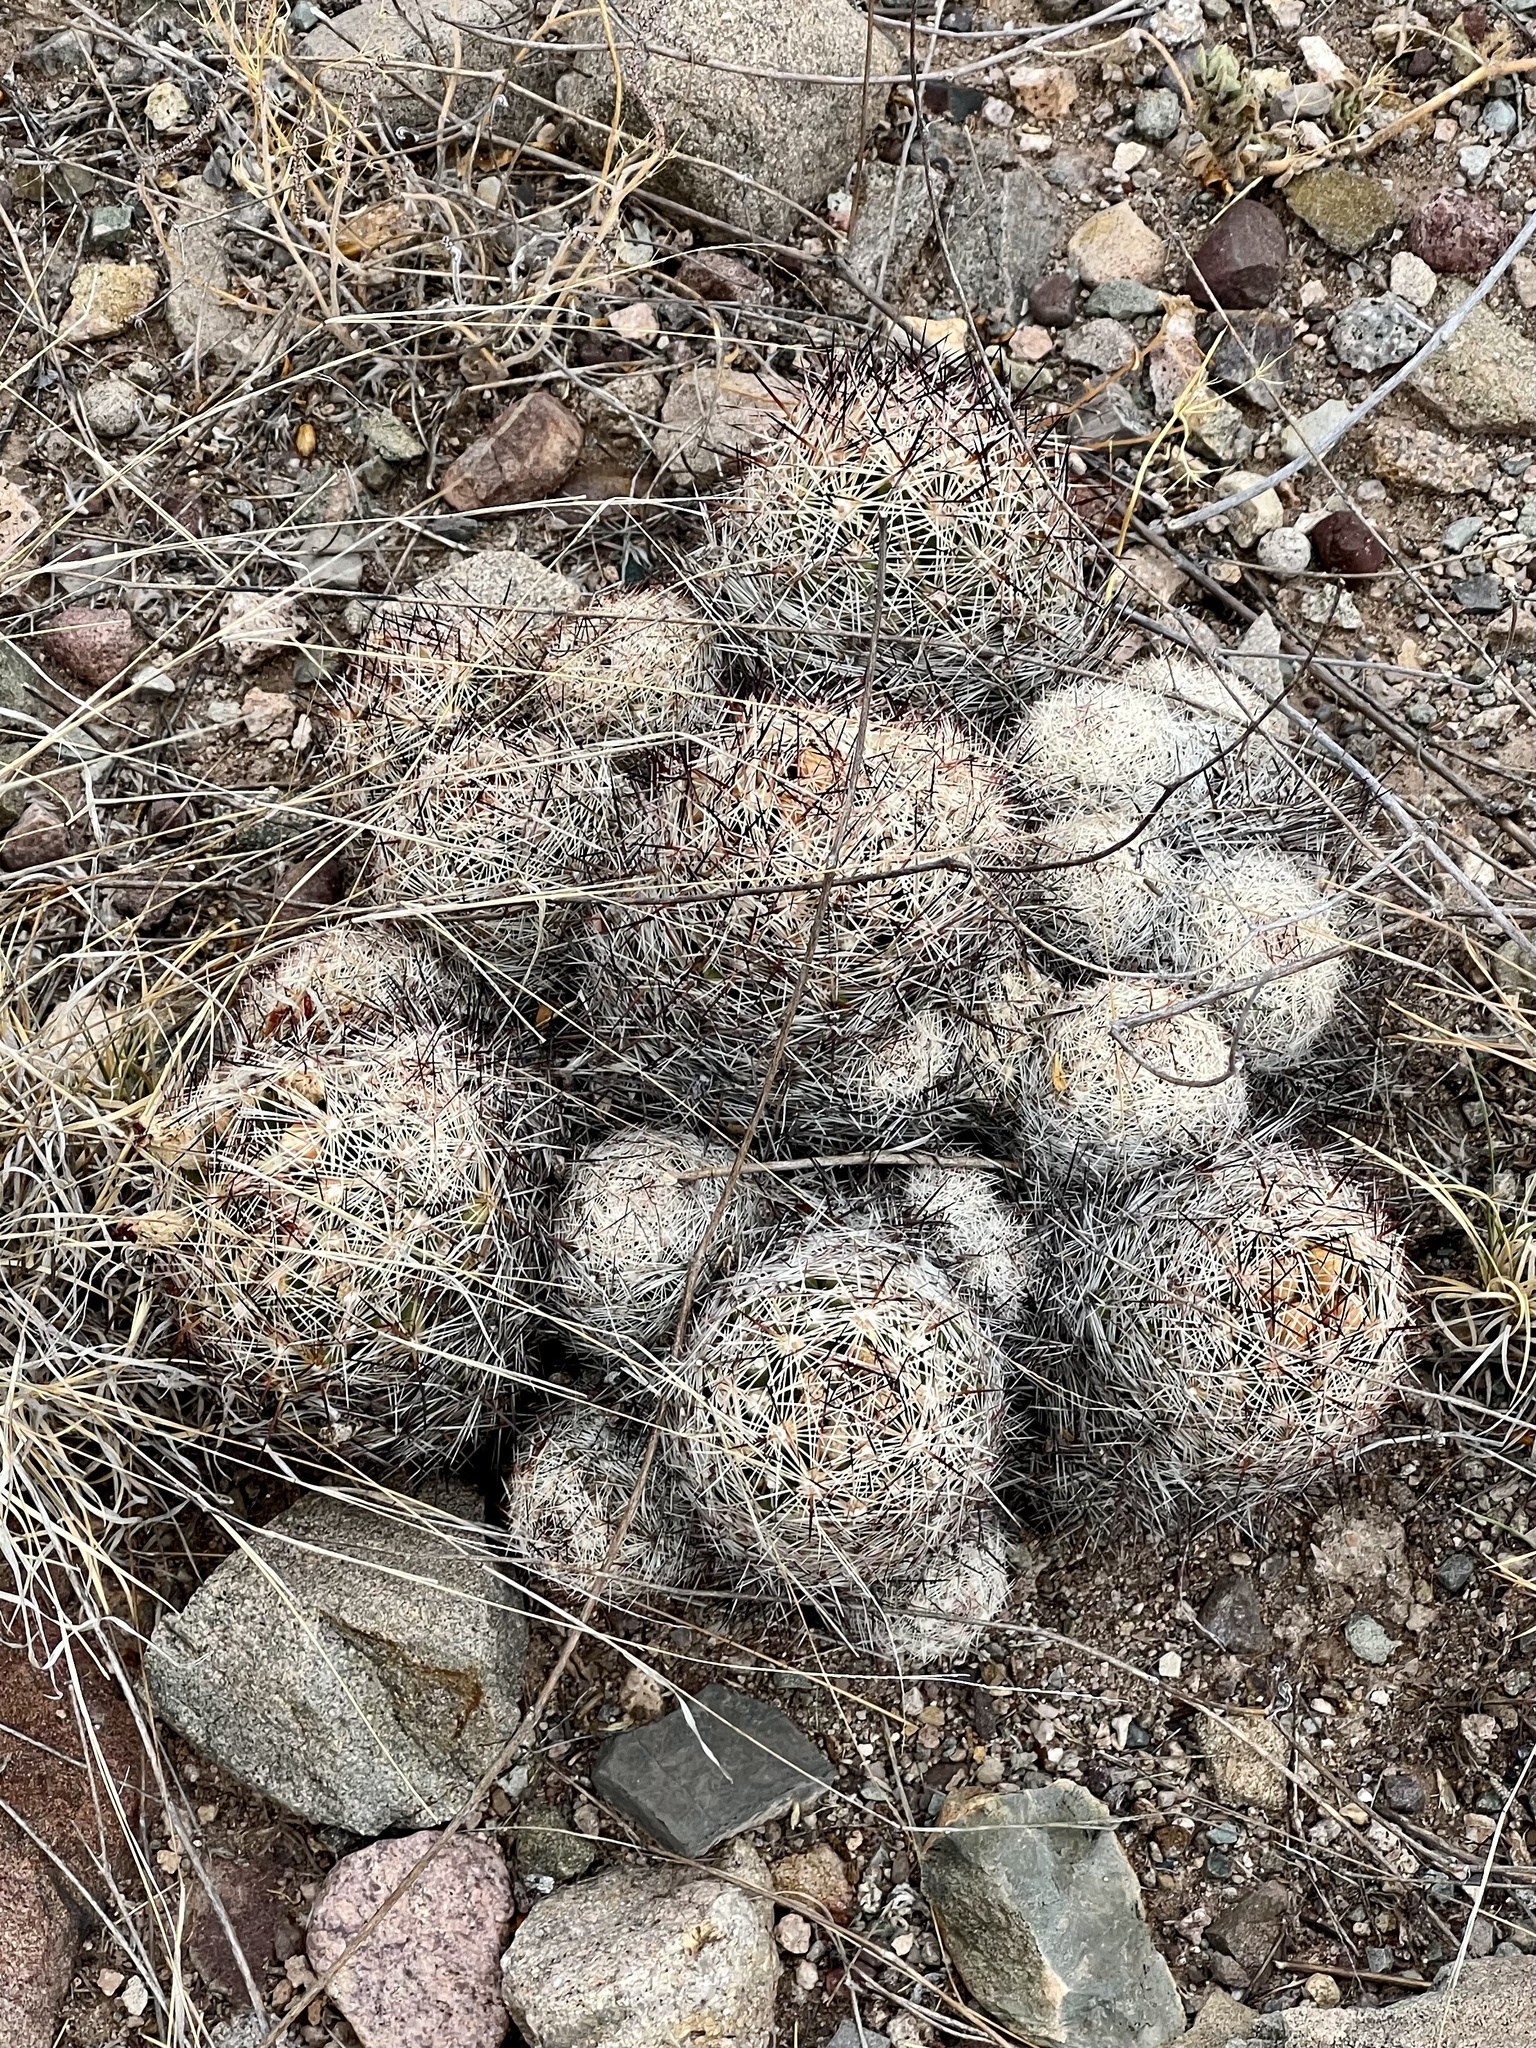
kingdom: Plantae
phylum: Tracheophyta
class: Magnoliopsida
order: Caryophyllales
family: Cactaceae
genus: Pelecyphora
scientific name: Pelecyphora vivipara
